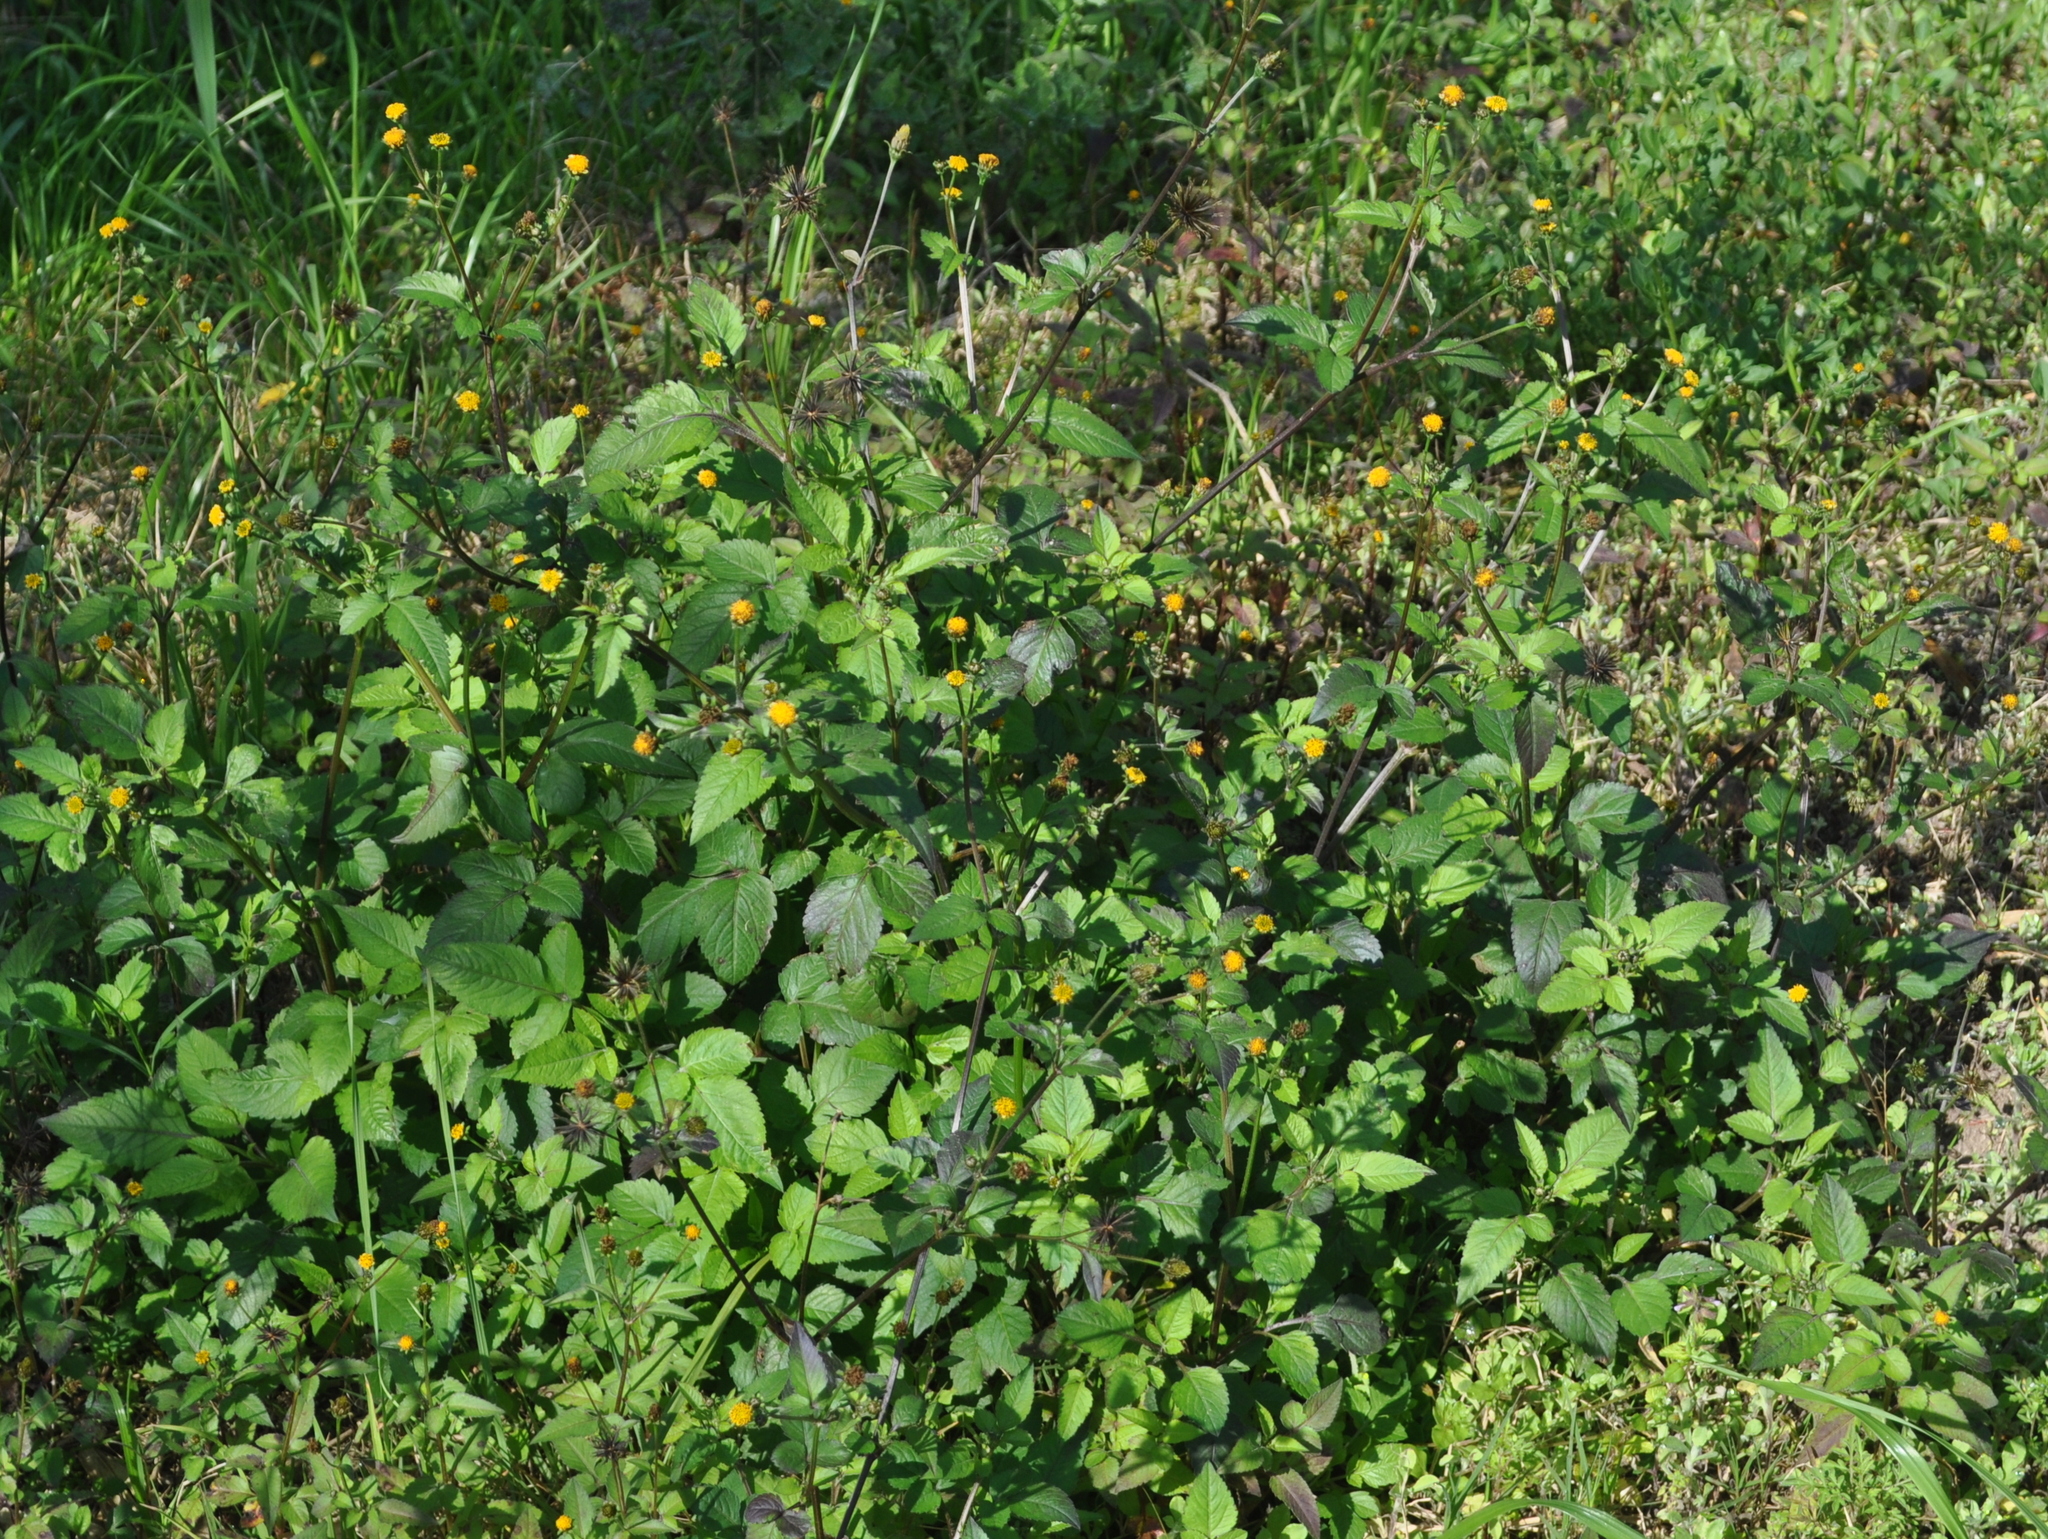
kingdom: Plantae
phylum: Tracheophyta
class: Magnoliopsida
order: Asterales
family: Asteraceae
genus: Bidens
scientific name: Bidens pilosa
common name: Black-jack
